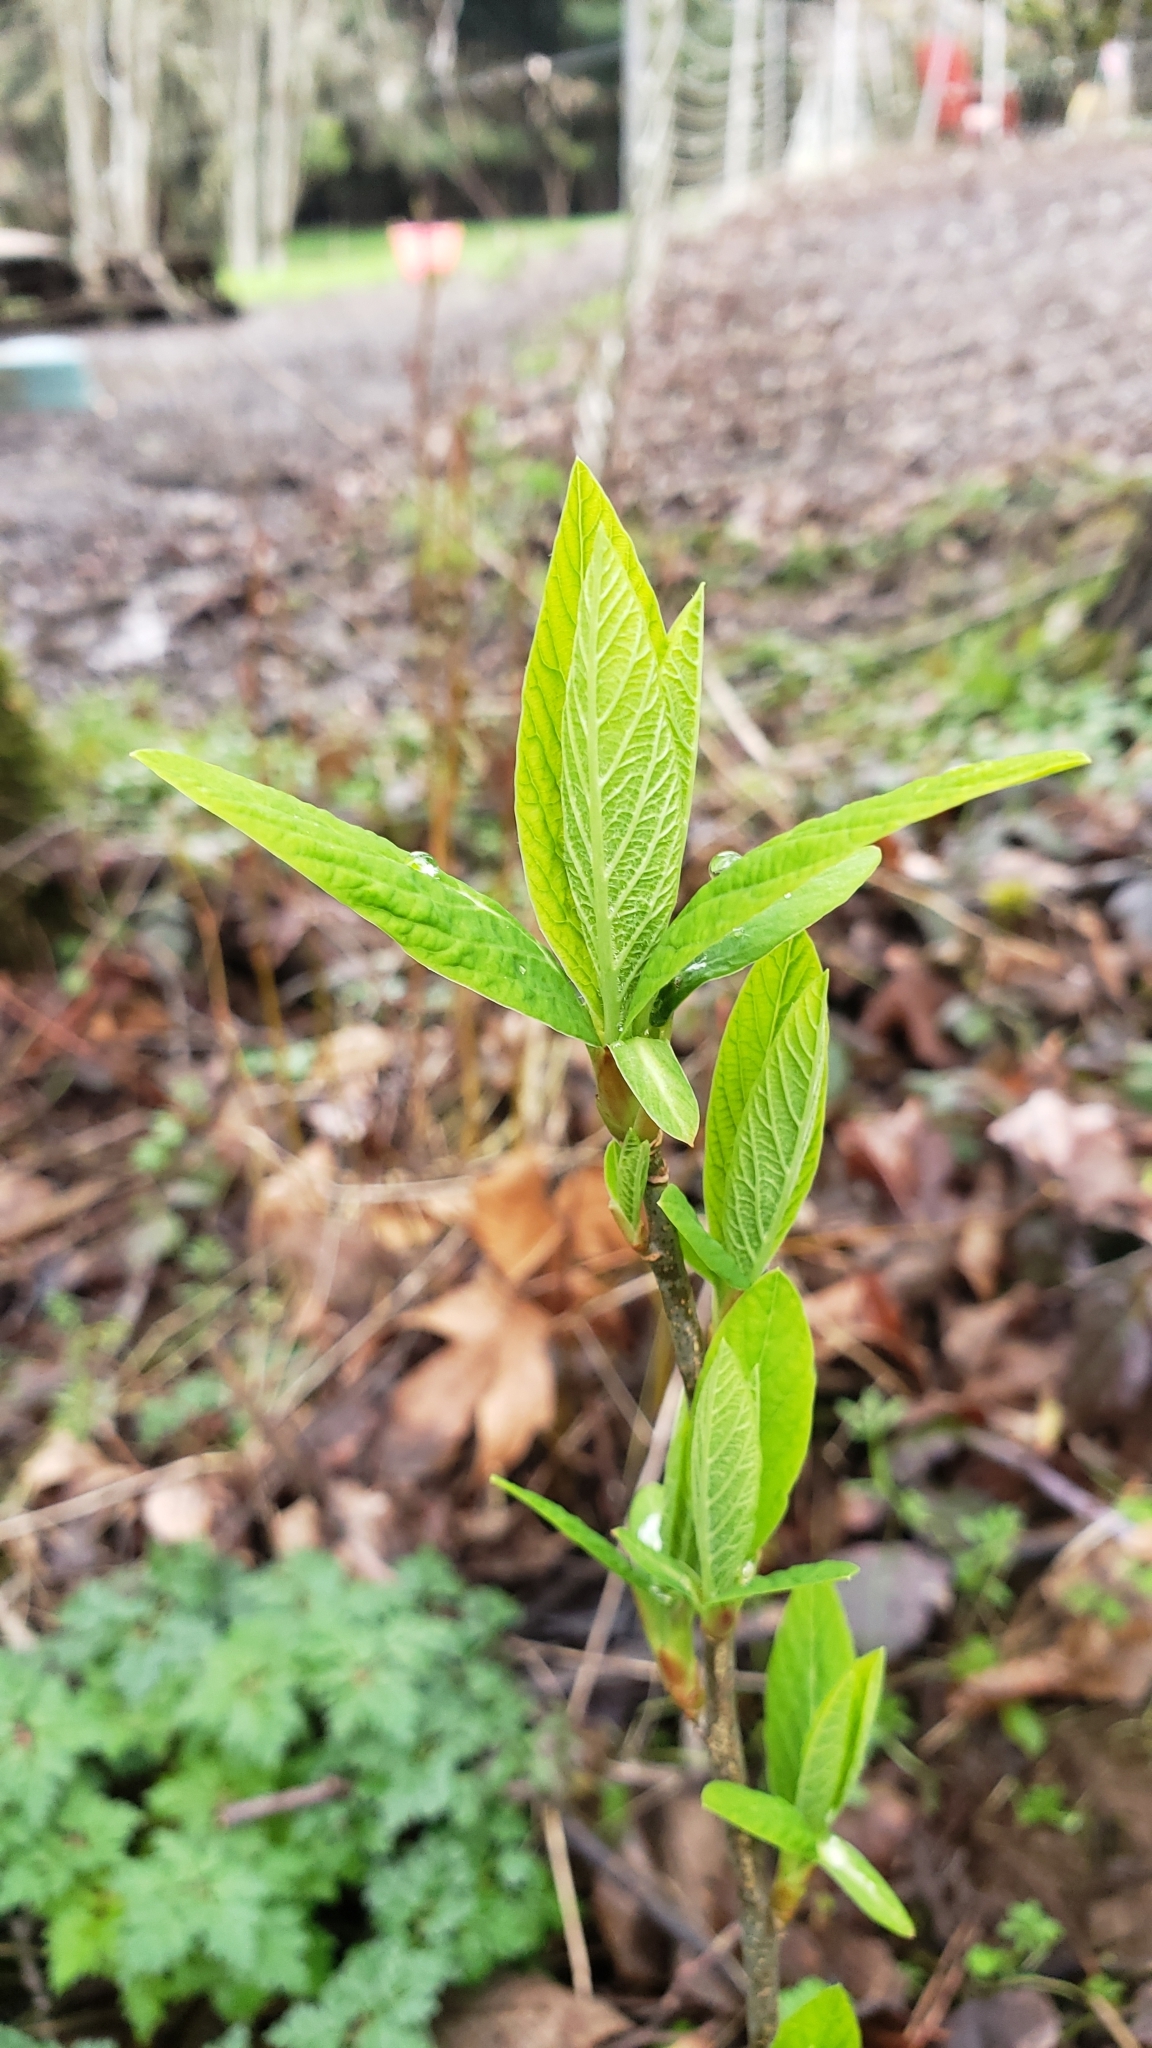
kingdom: Plantae
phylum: Tracheophyta
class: Magnoliopsida
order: Rosales
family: Rosaceae
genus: Oemleria
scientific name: Oemleria cerasiformis
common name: Osoberry
